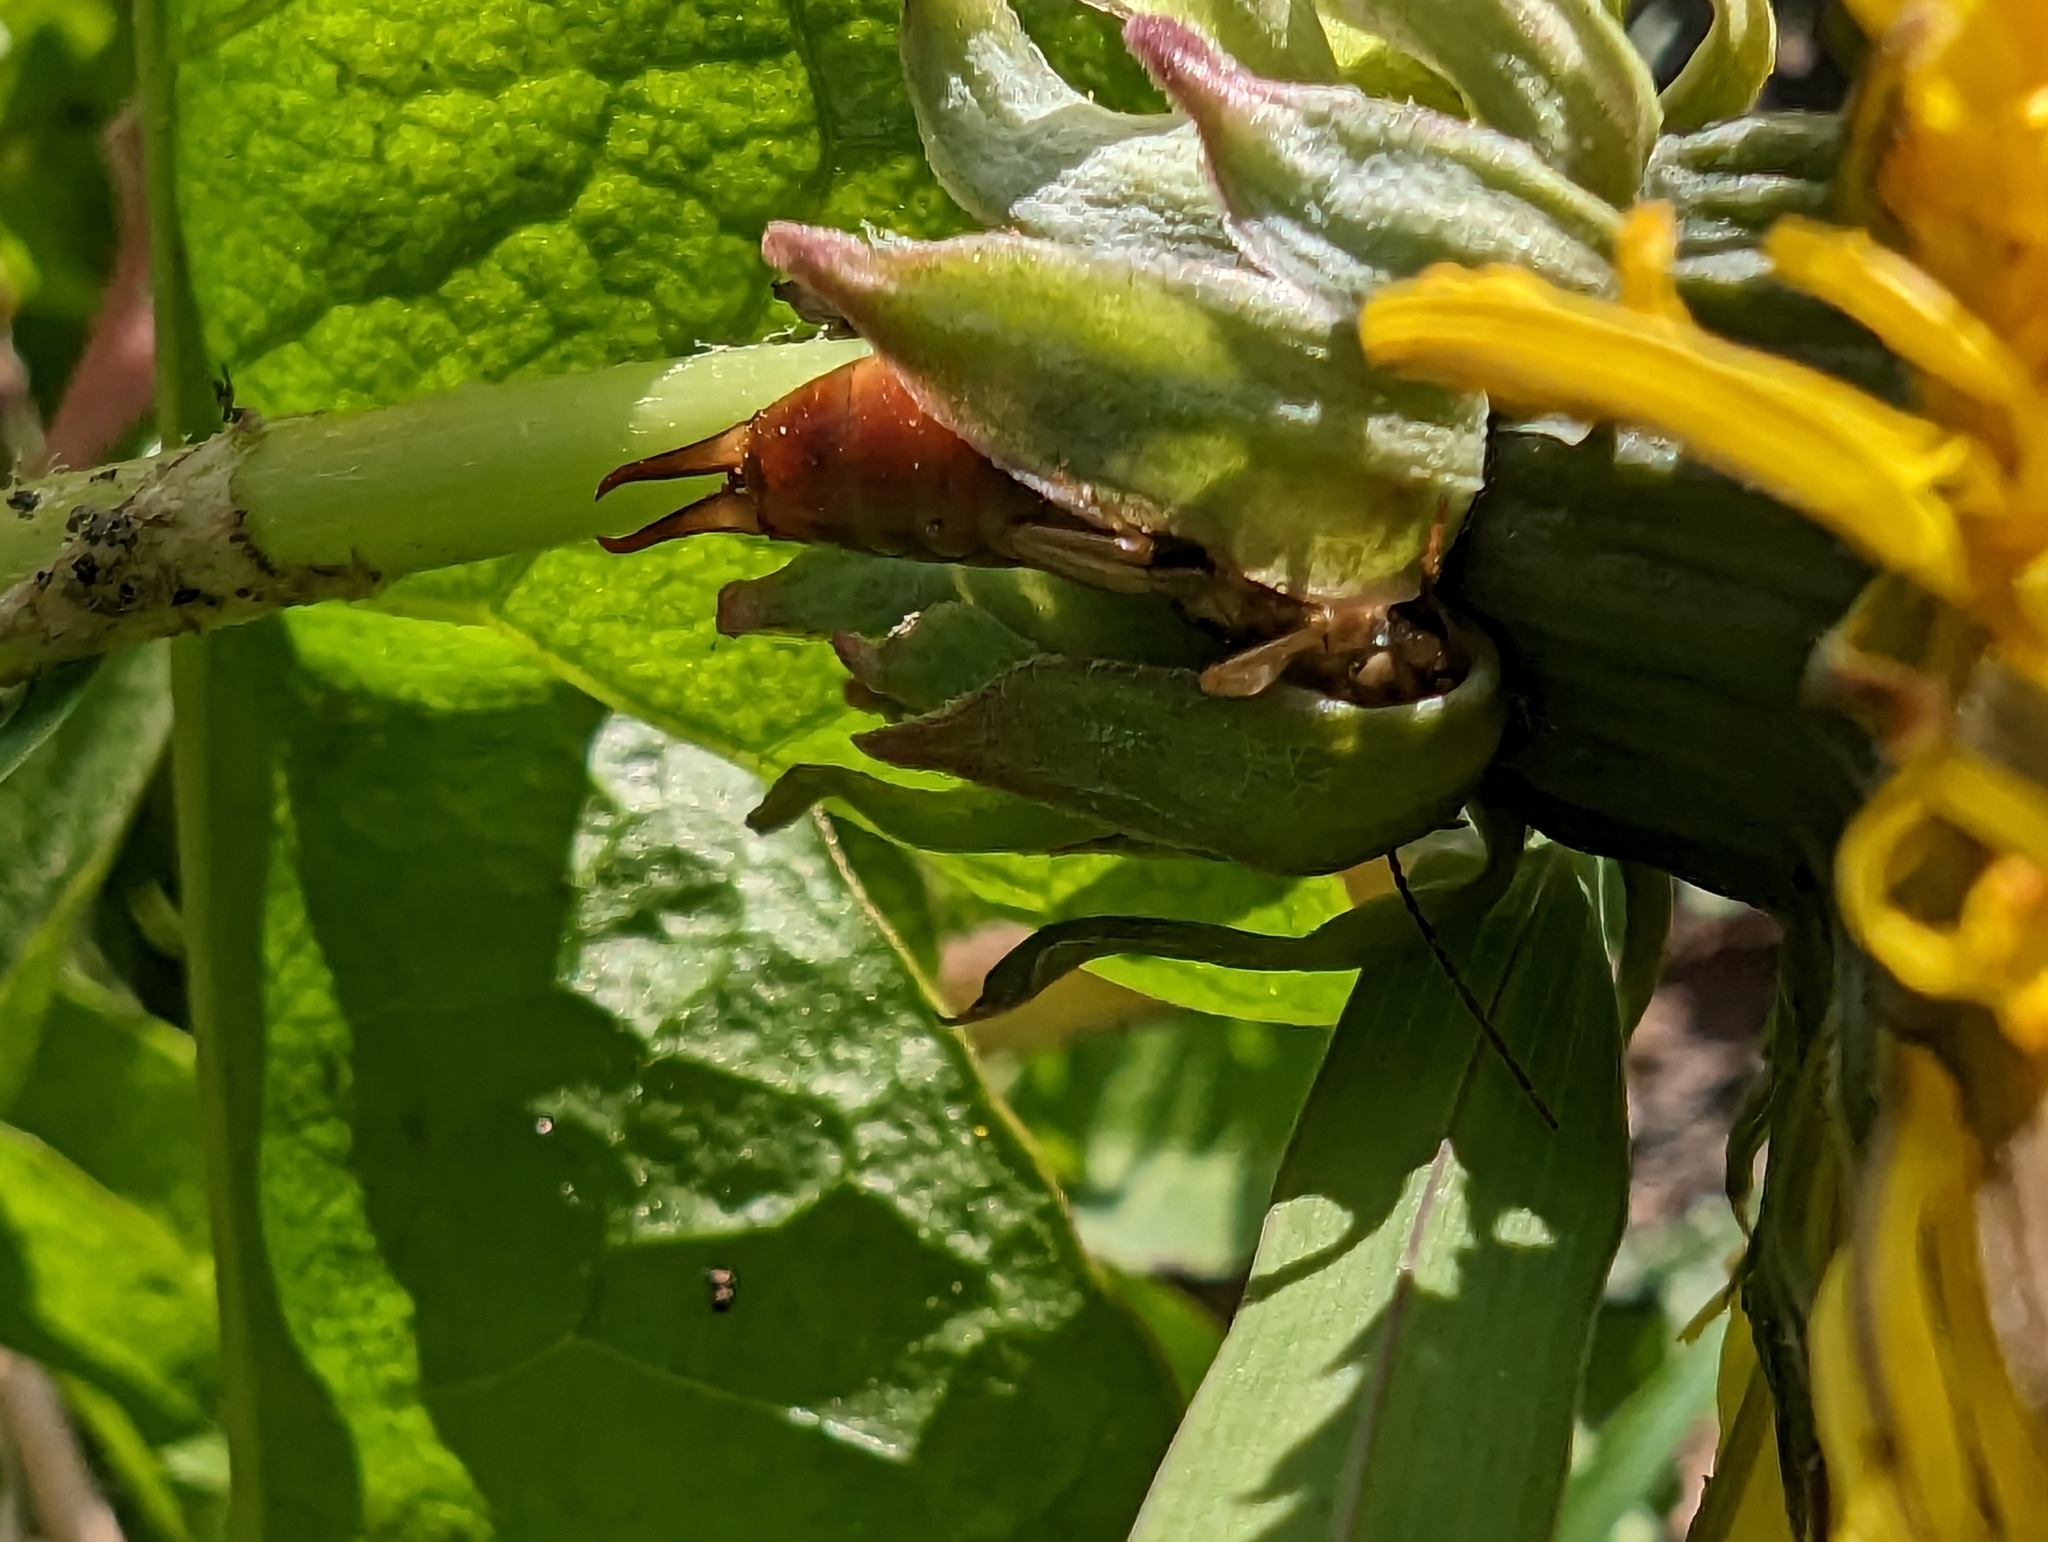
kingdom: Animalia
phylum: Arthropoda
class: Insecta
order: Dermaptera
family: Forficulidae
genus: Forficula
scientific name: Forficula
